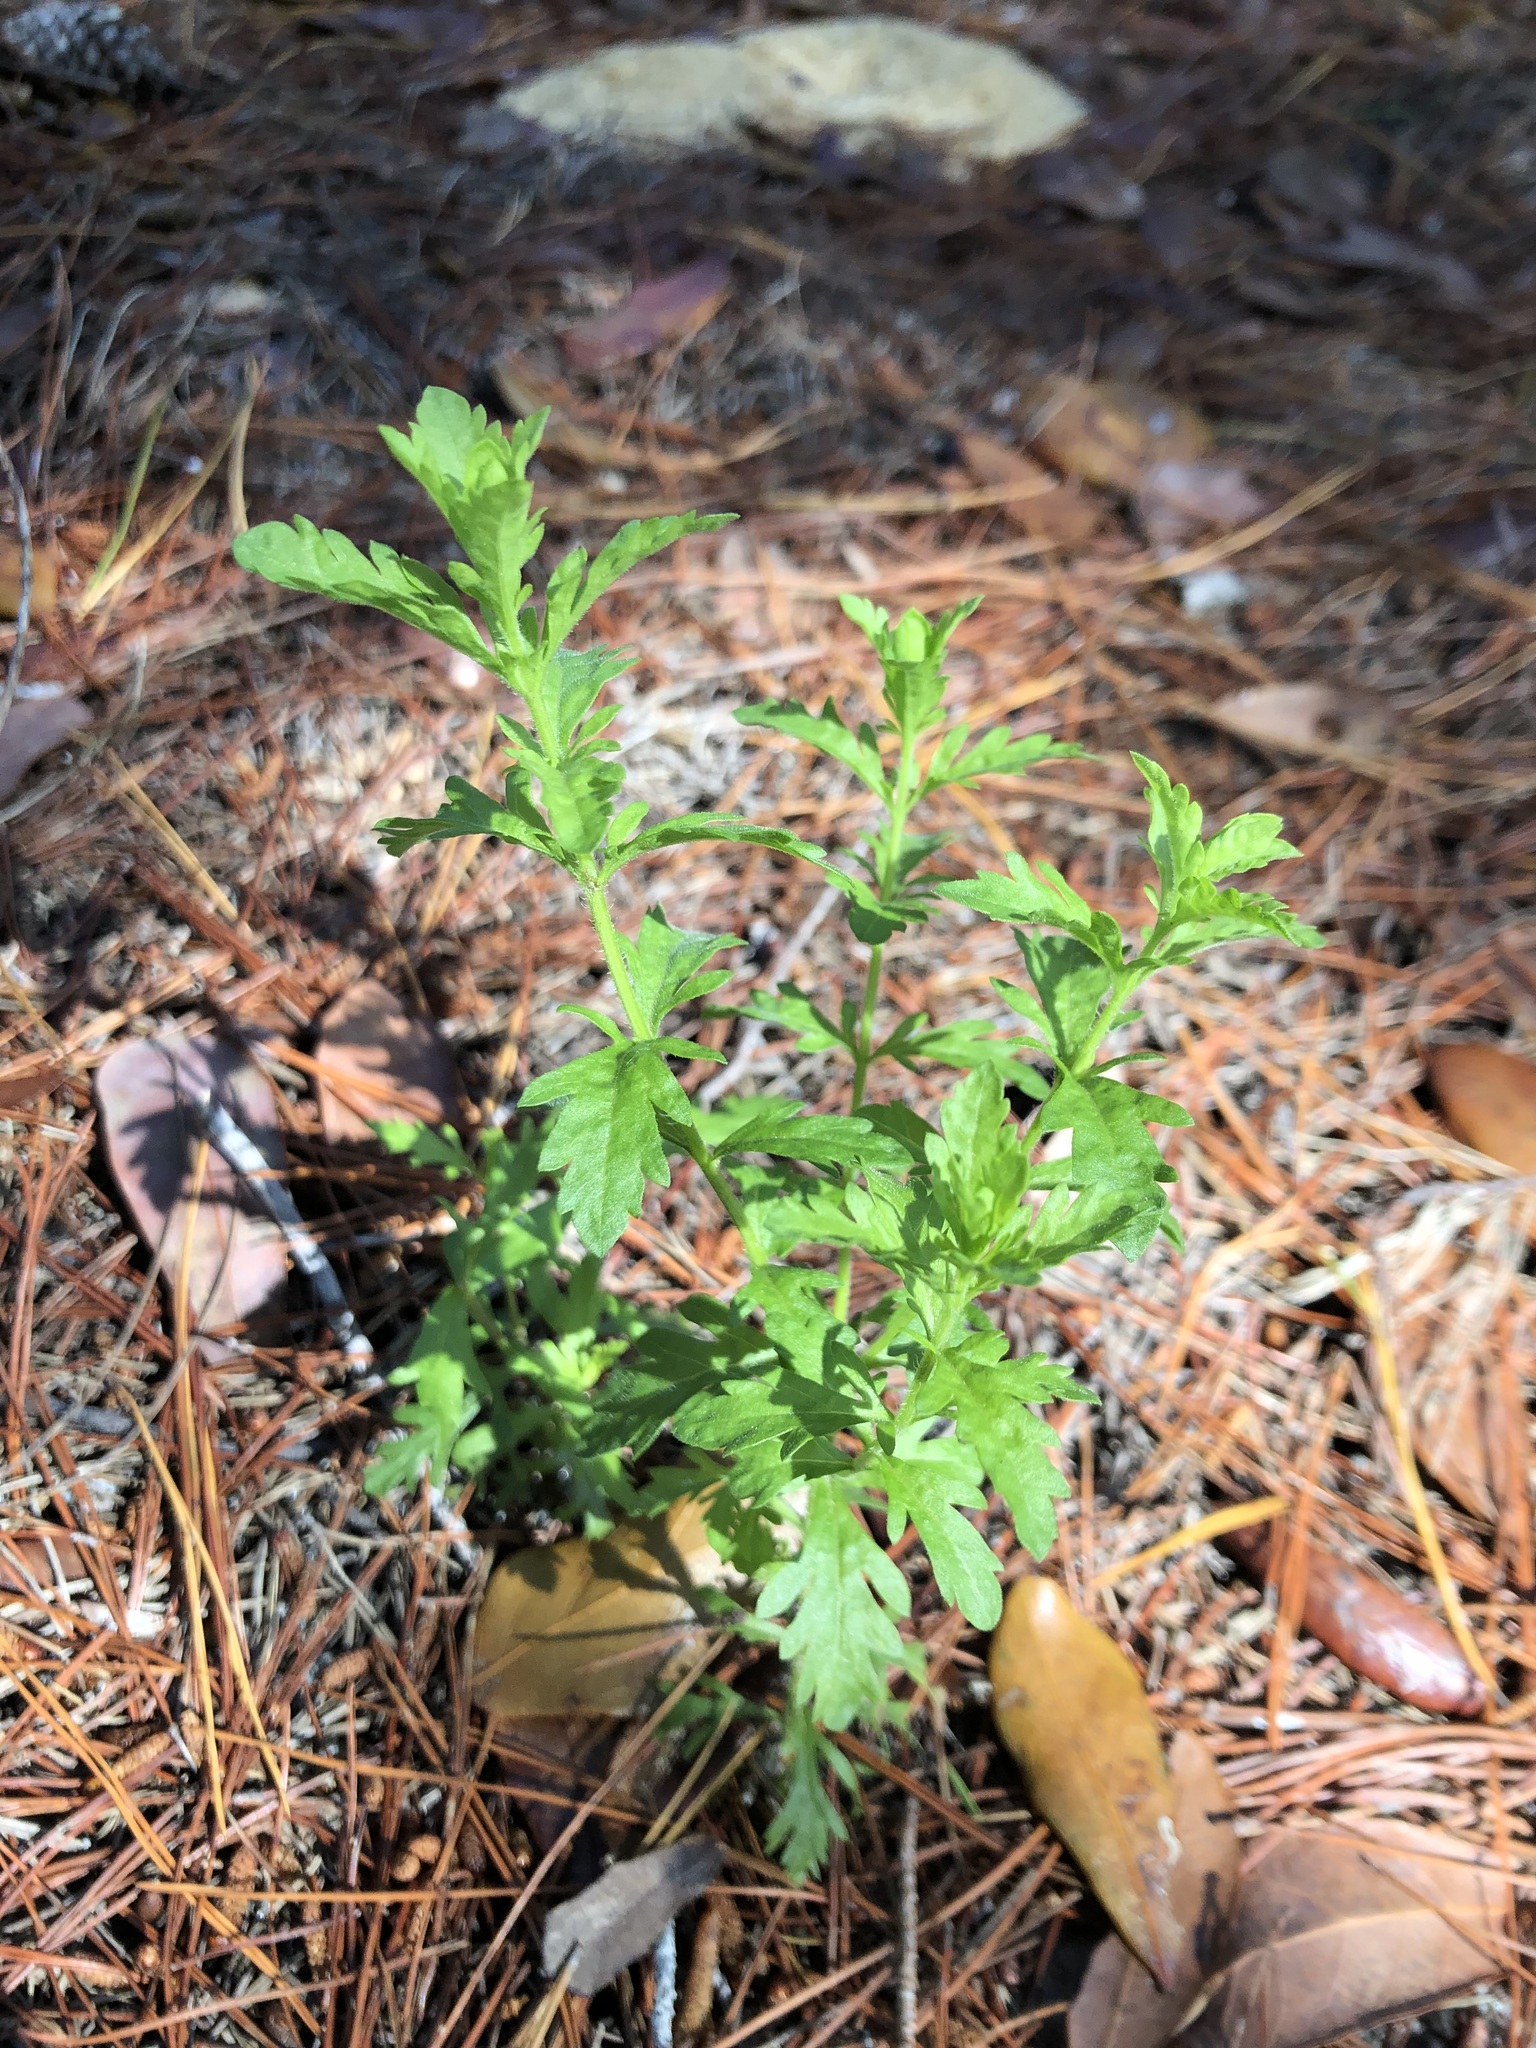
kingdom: Plantae
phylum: Tracheophyta
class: Magnoliopsida
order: Lamiales
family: Orobanchaceae
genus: Seymeria
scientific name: Seymeria pectinata
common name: Piedmont black-senna
